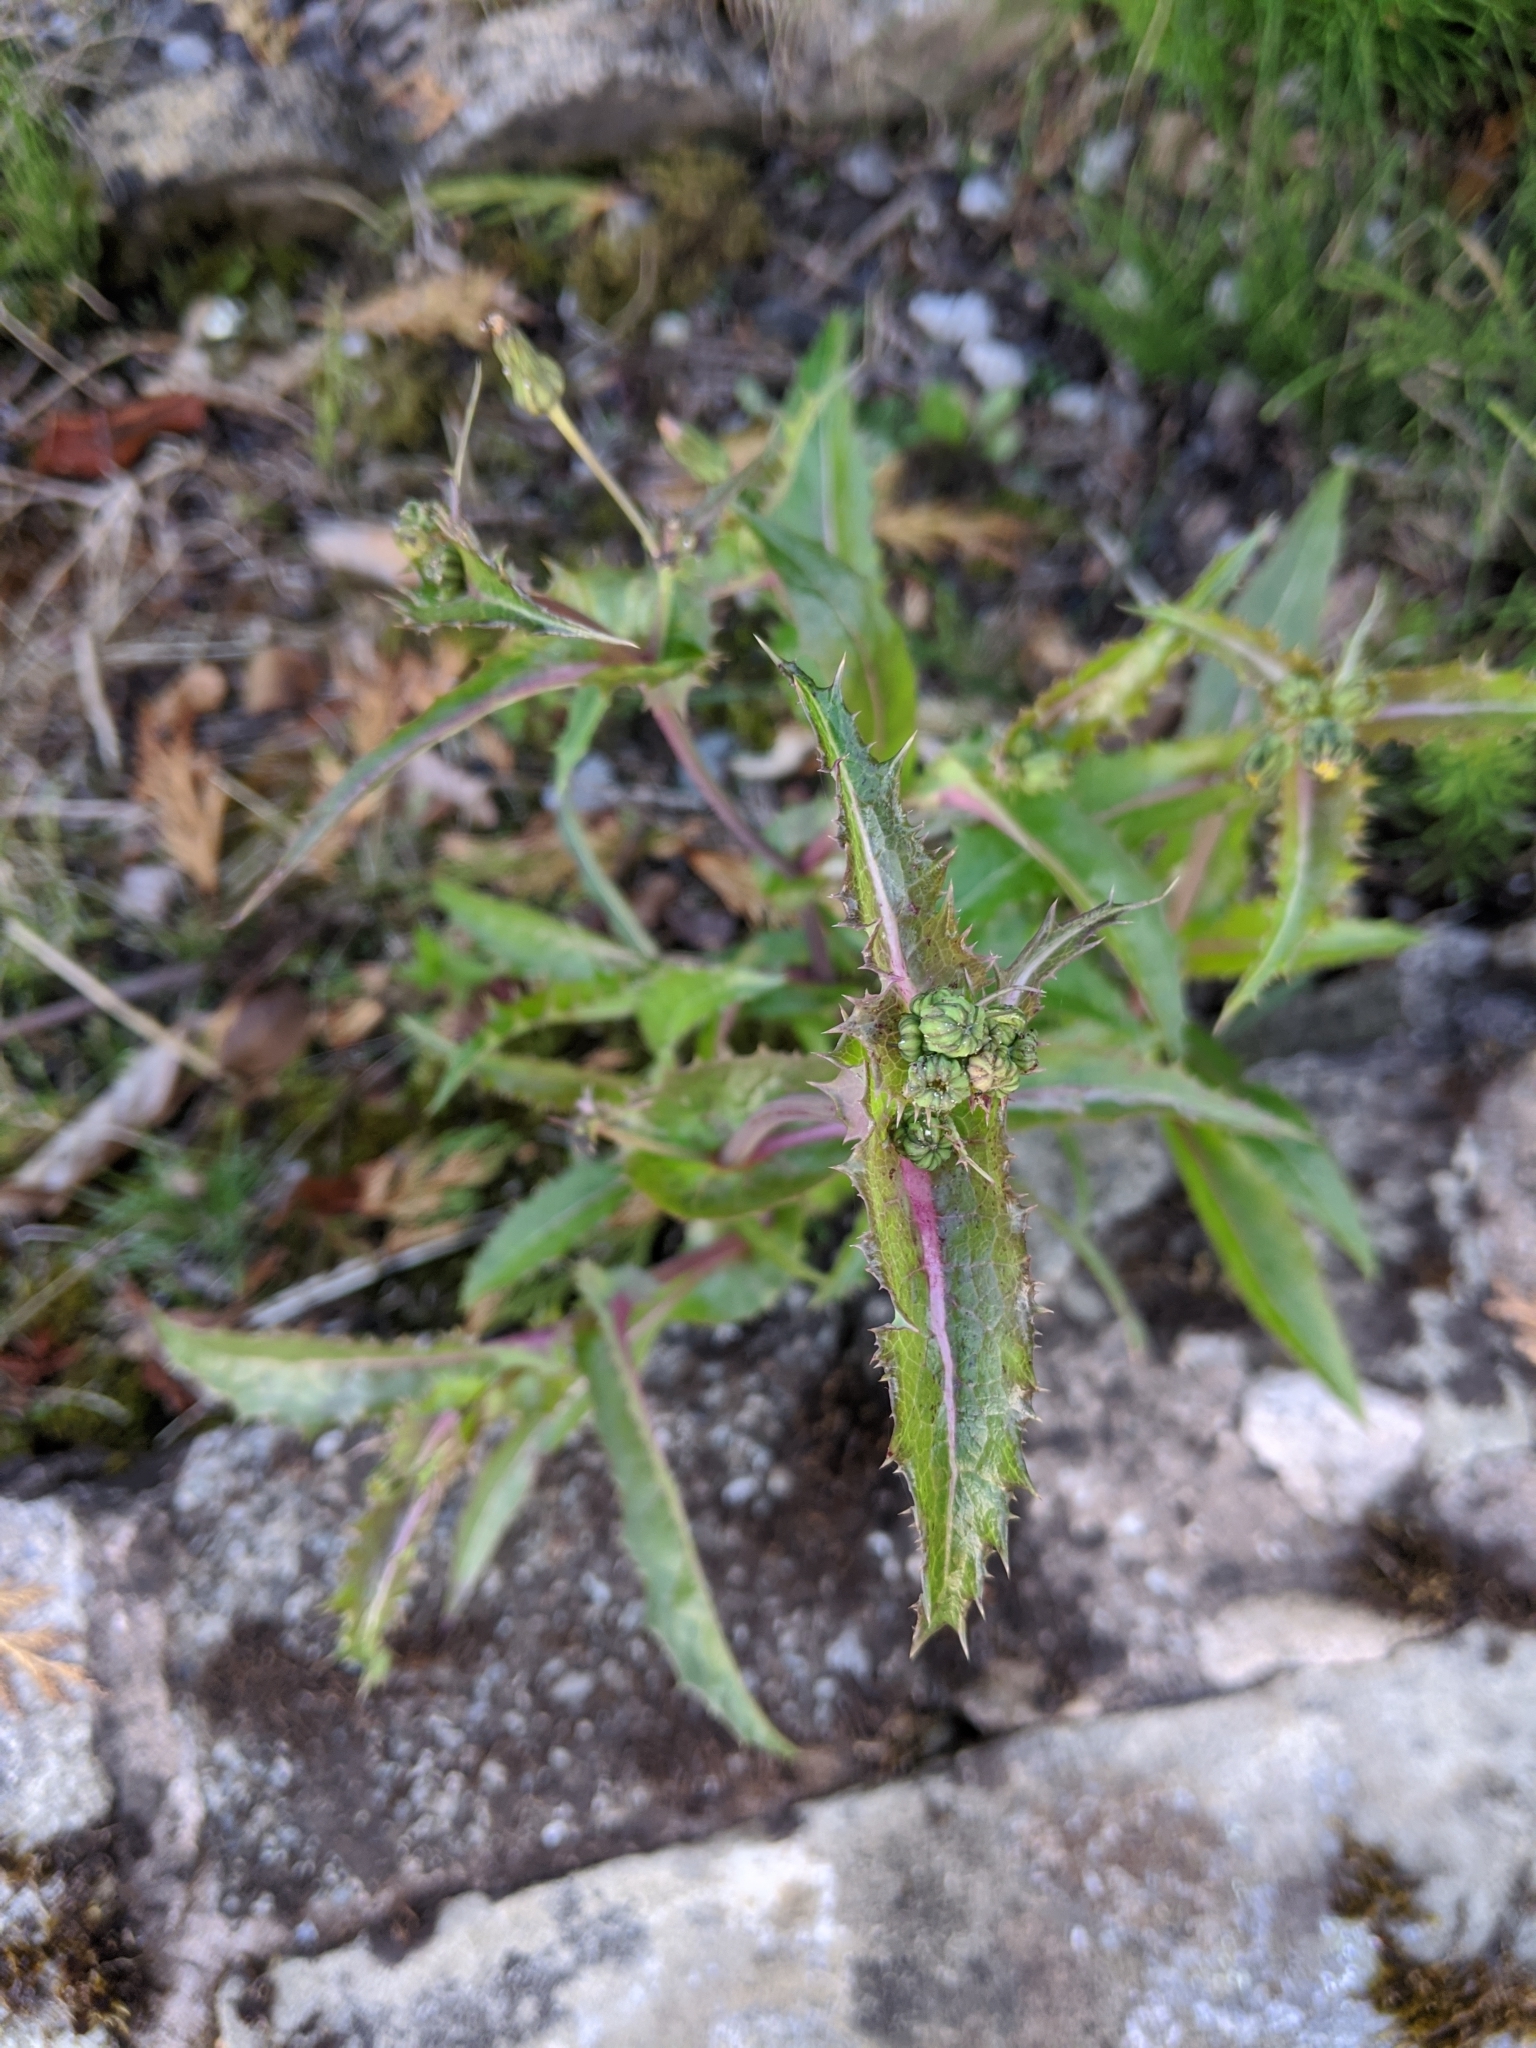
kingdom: Plantae
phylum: Tracheophyta
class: Magnoliopsida
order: Asterales
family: Asteraceae
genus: Sonchus
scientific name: Sonchus asper
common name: Prickly sow-thistle
